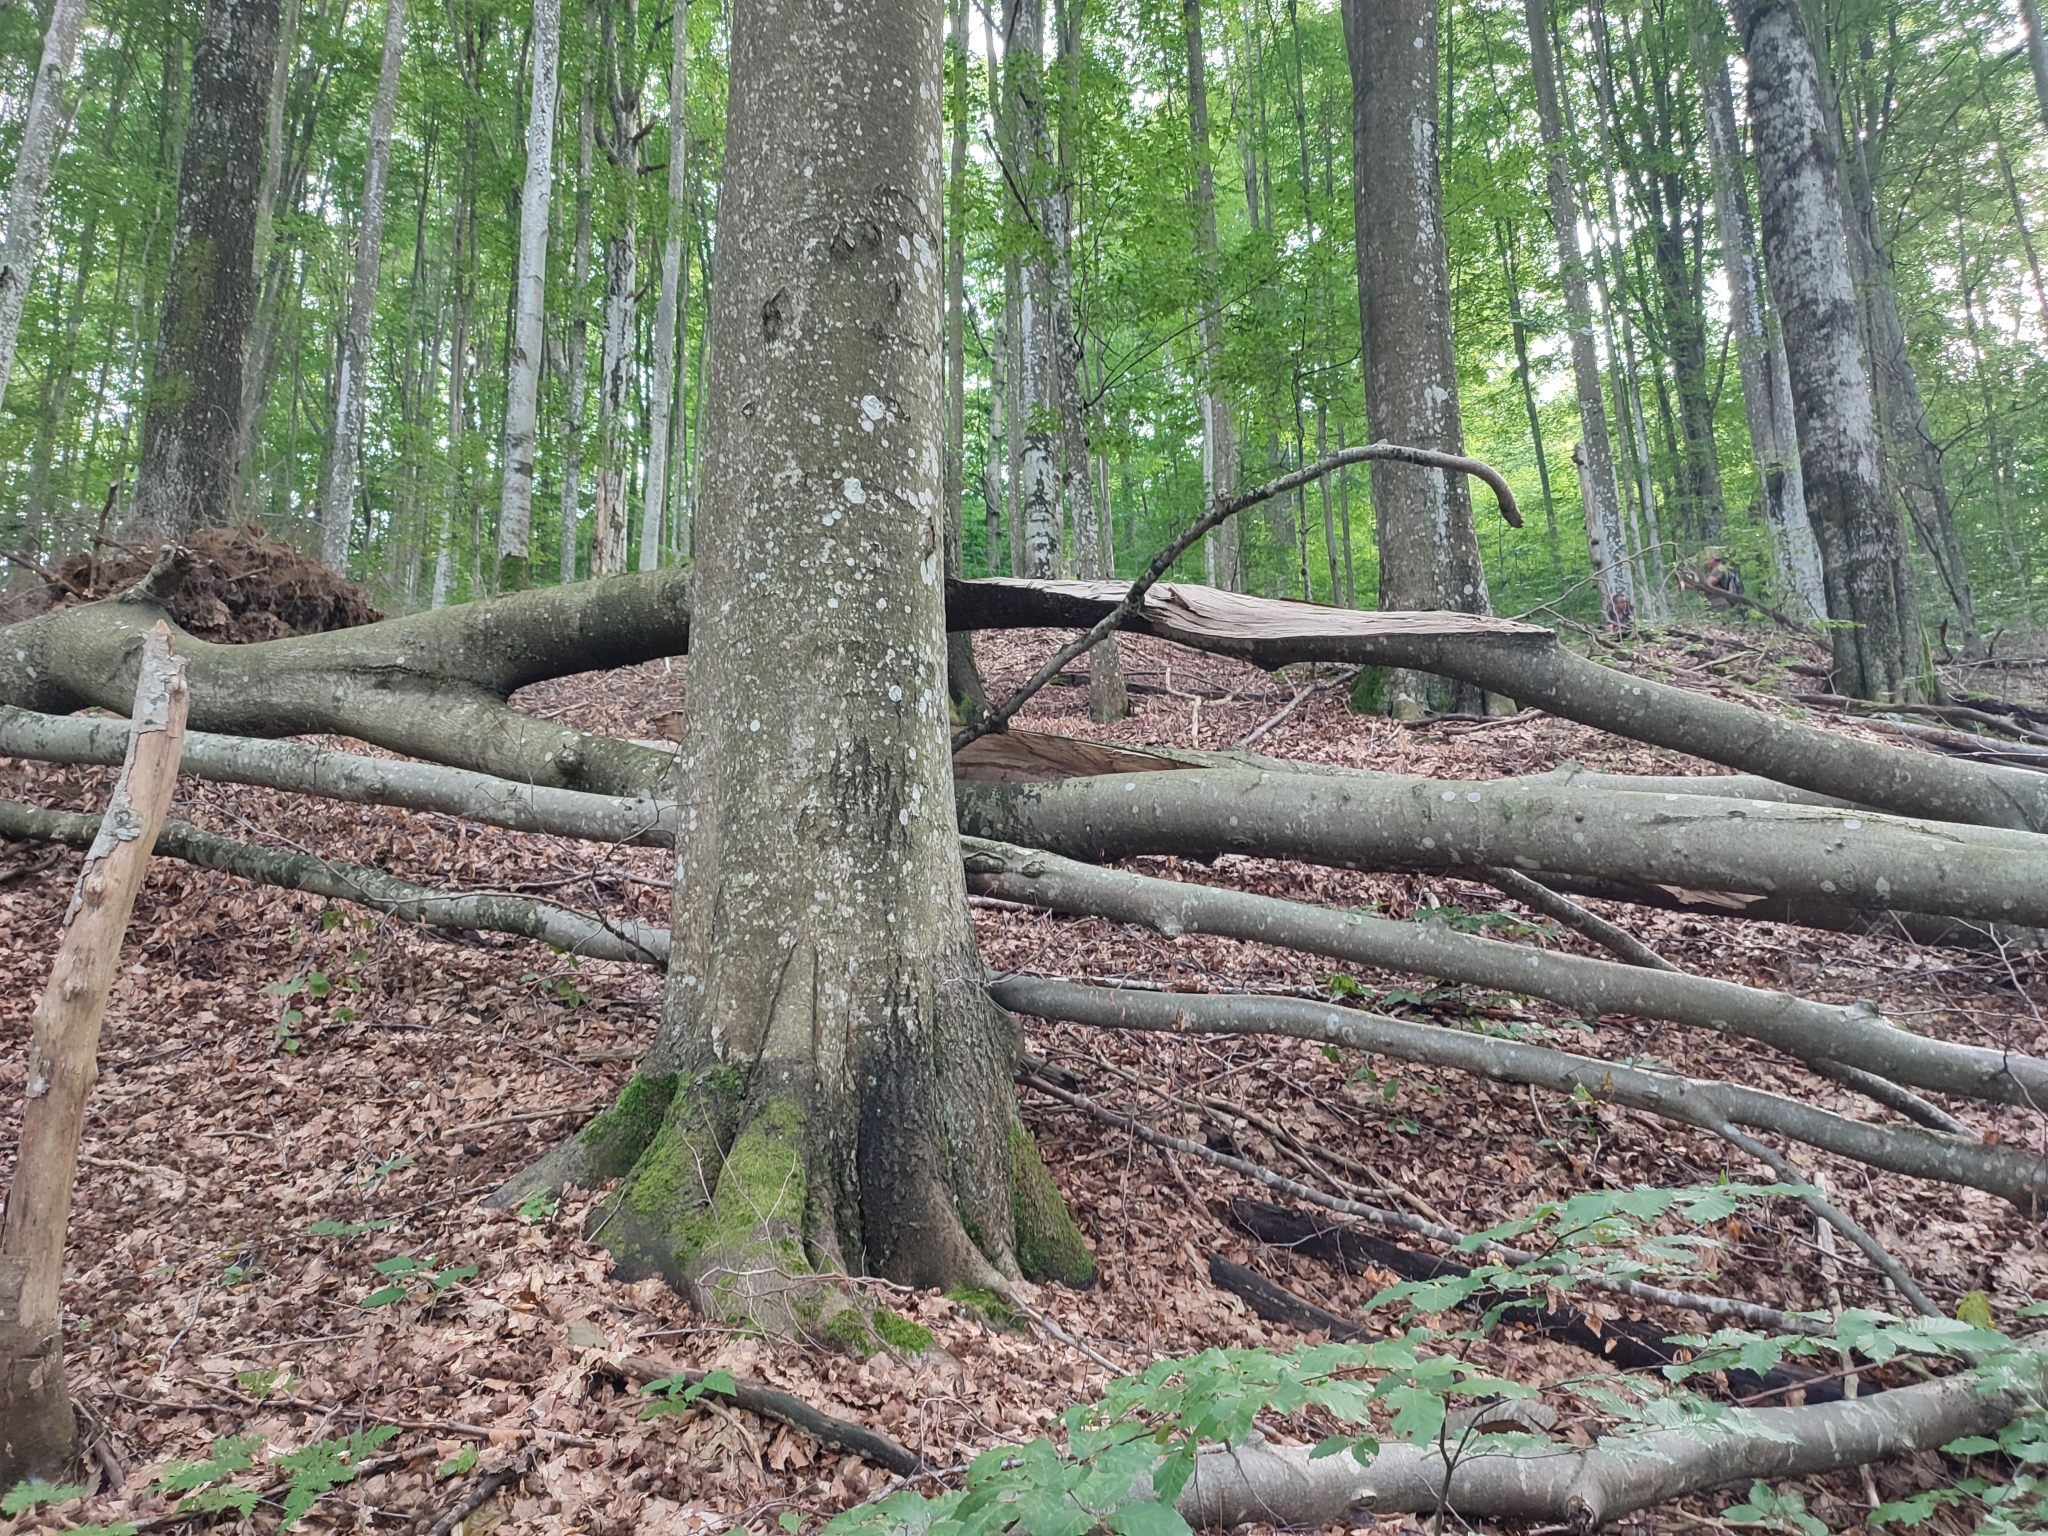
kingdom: Plantae
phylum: Tracheophyta
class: Magnoliopsida
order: Fagales
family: Fagaceae
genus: Fagus
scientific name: Fagus sylvatica
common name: Beech
